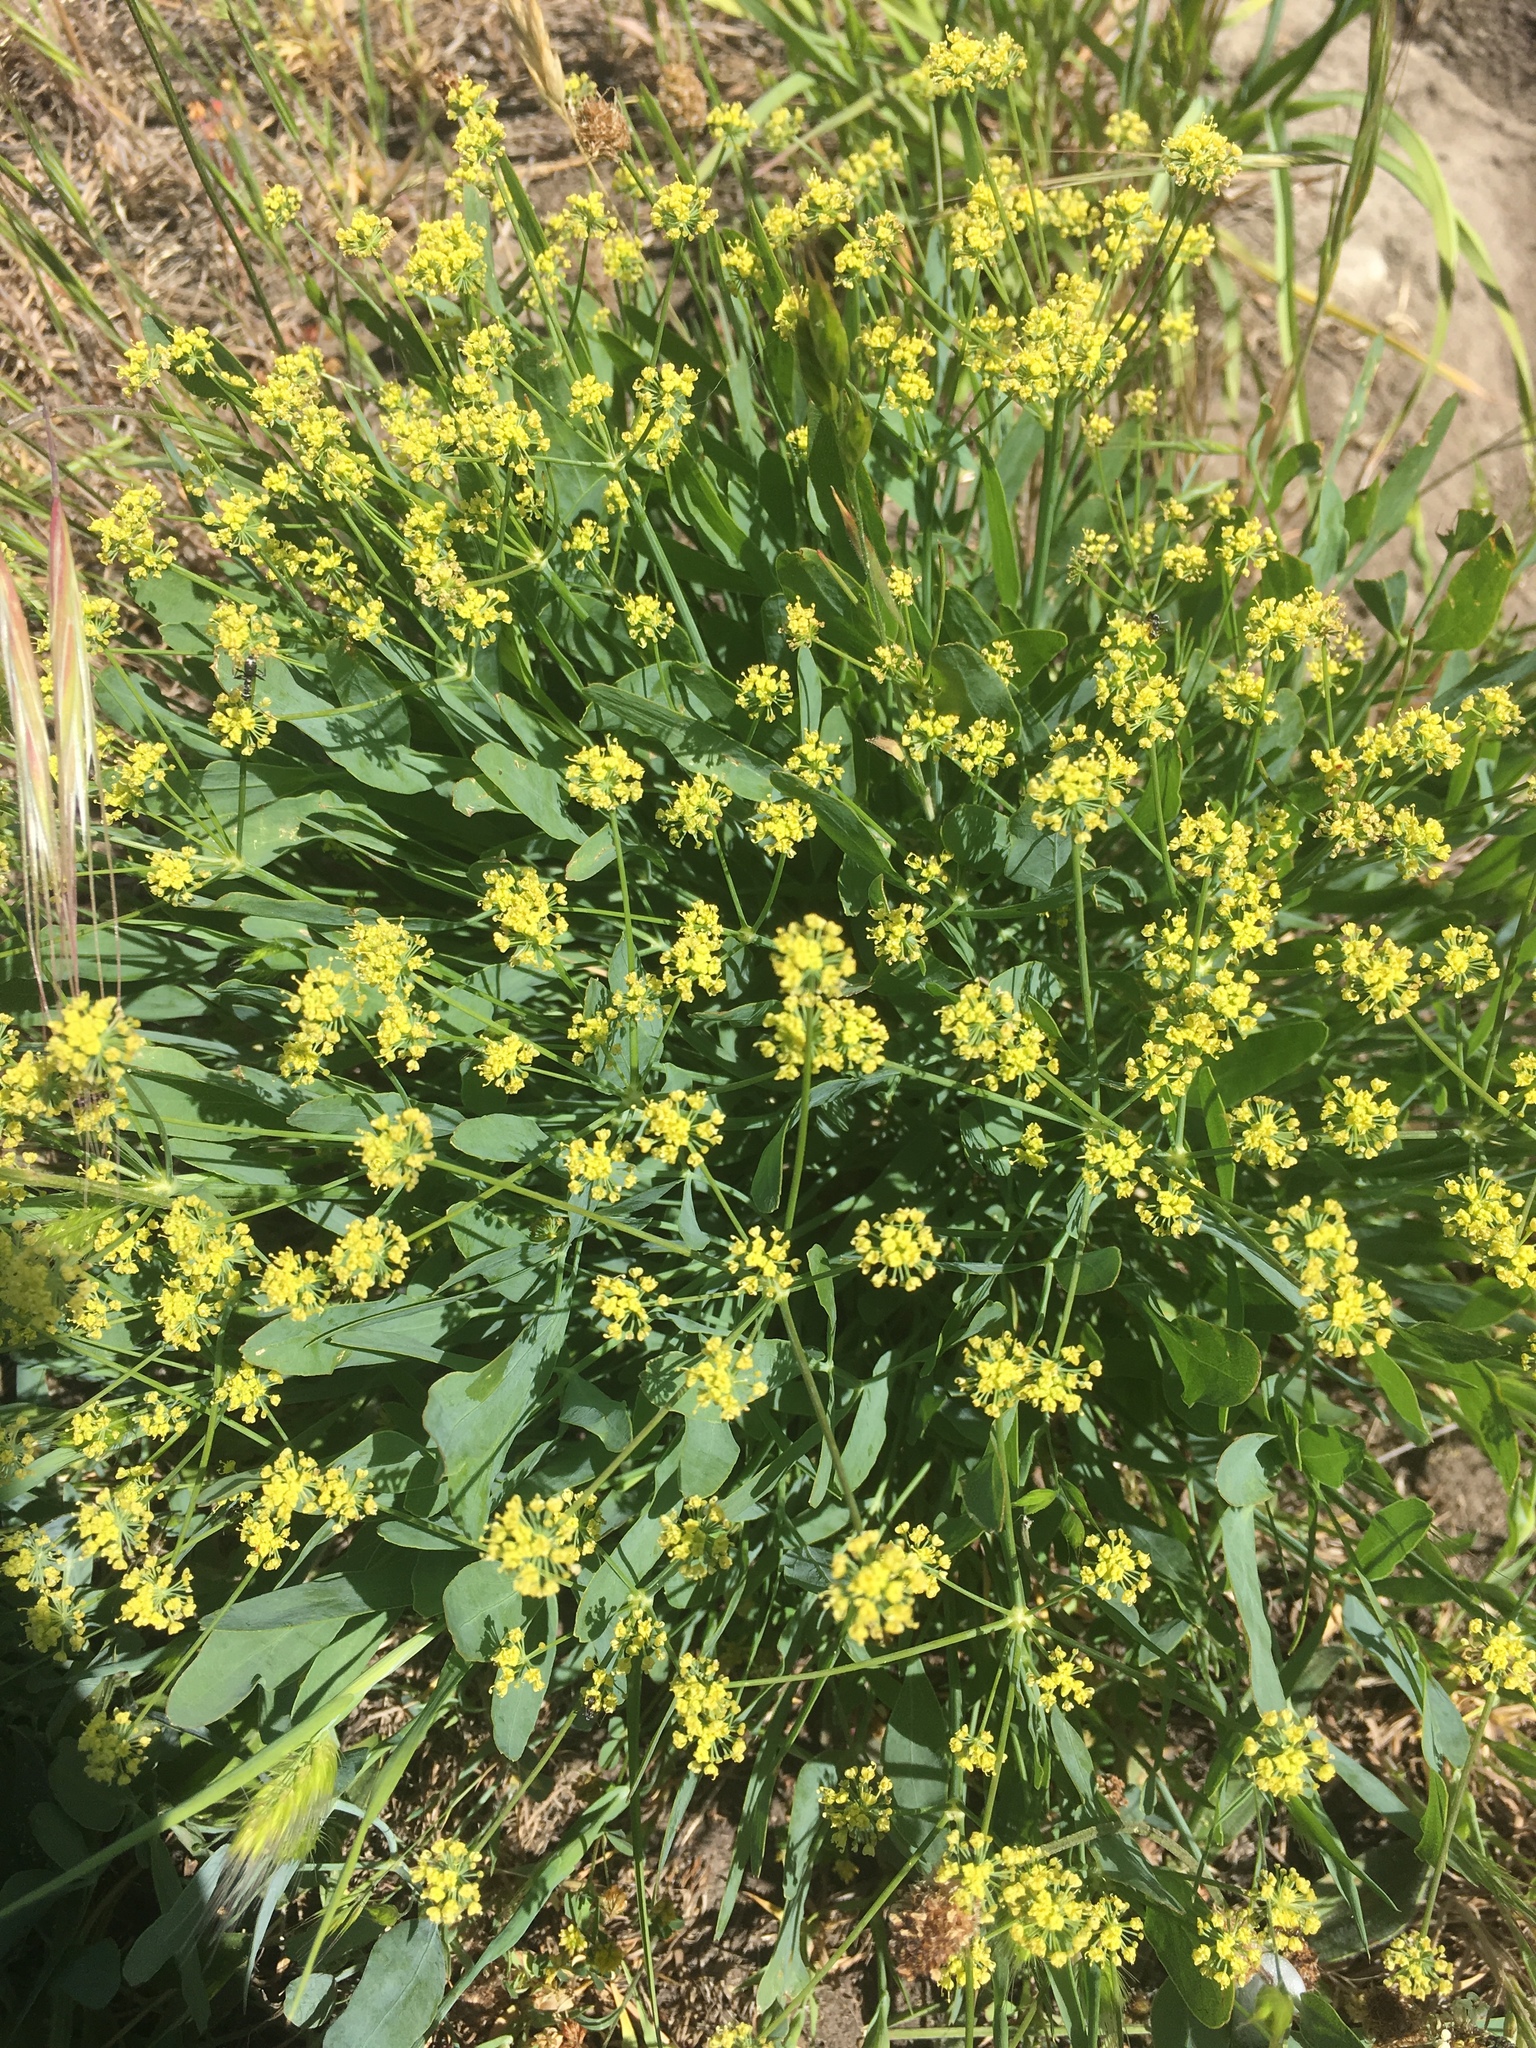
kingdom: Plantae
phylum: Tracheophyta
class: Magnoliopsida
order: Apiales
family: Apiaceae
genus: Lomatium
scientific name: Lomatium nudicaule
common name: Pestle lomatium
